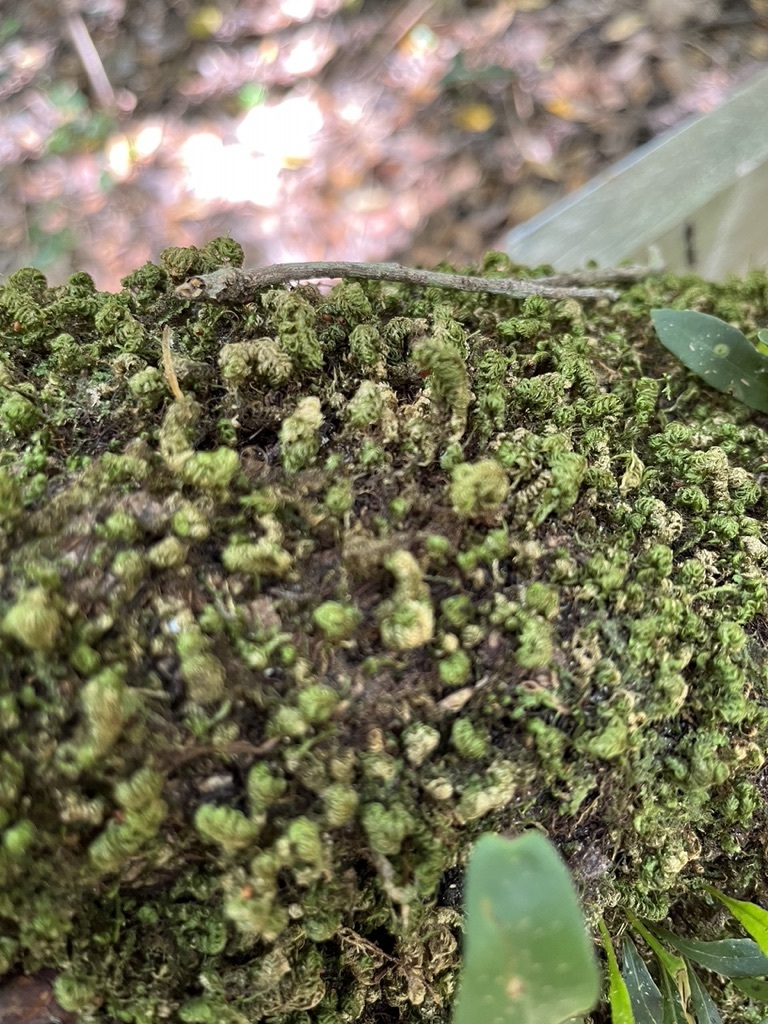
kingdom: Plantae
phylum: Bryophyta
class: Bryopsida
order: Hypnales
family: Neckeraceae
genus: Leptodon
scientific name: Leptodon smithii
